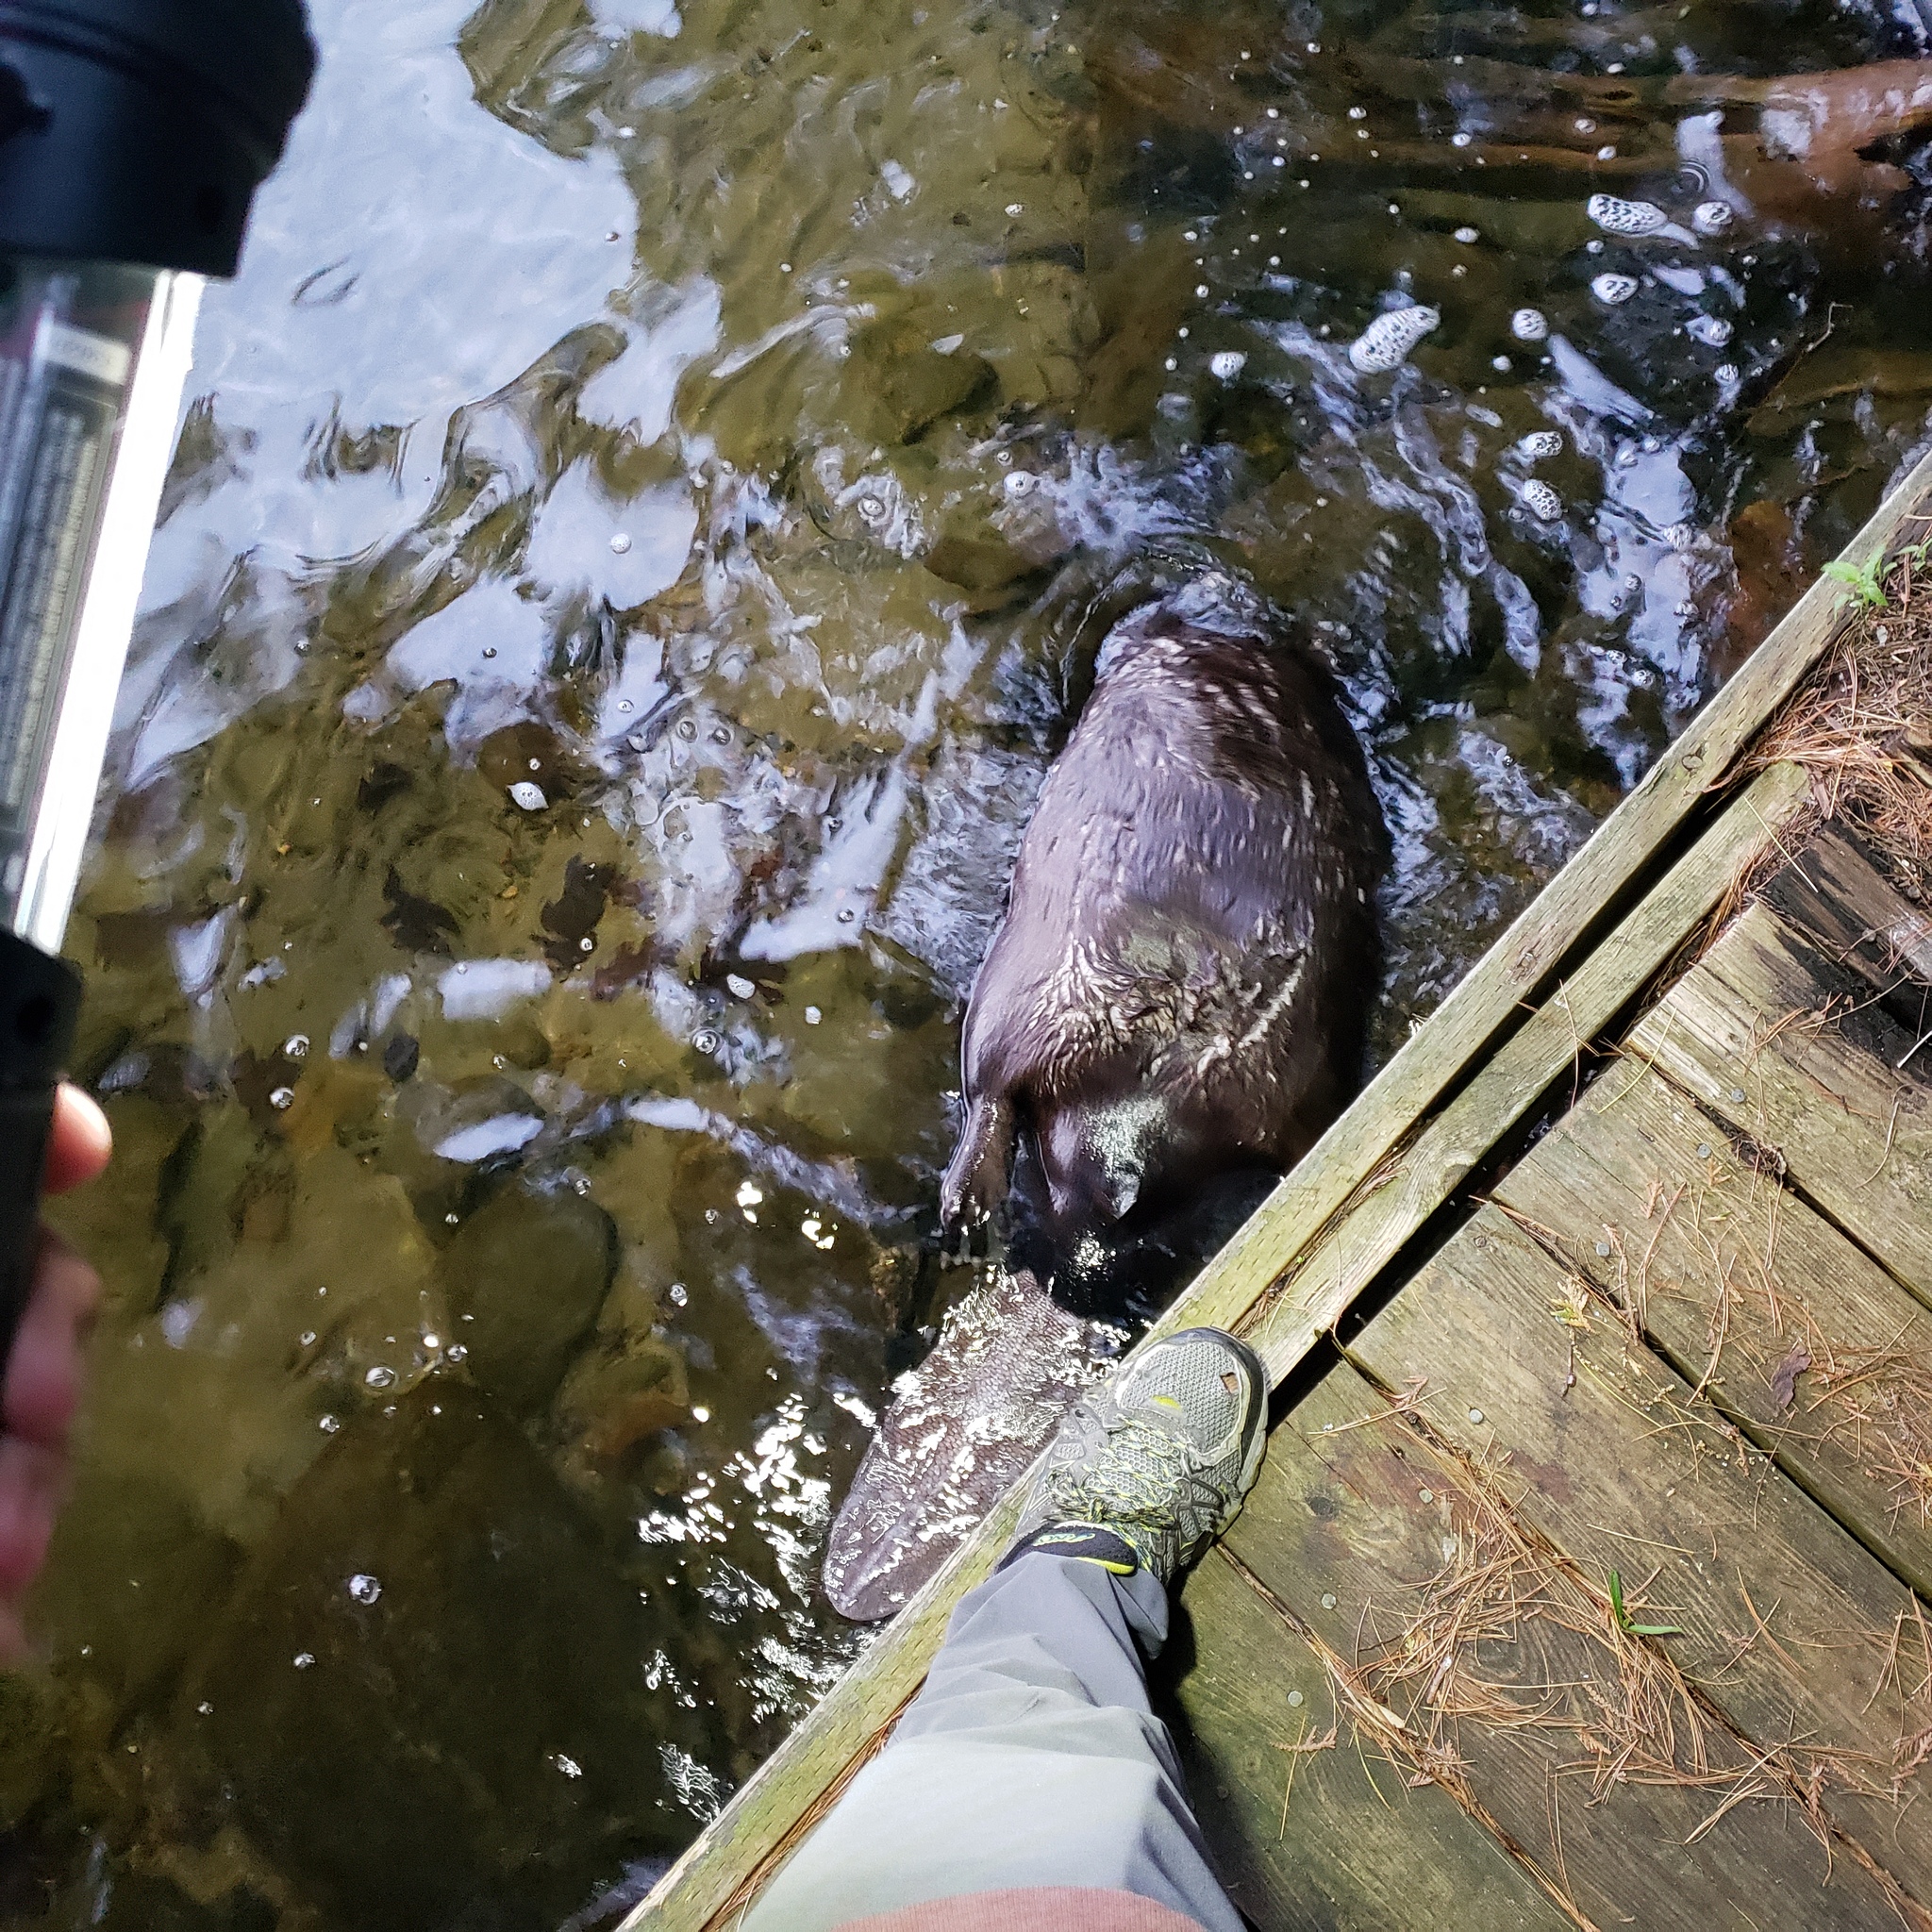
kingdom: Animalia
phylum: Chordata
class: Mammalia
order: Rodentia
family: Castoridae
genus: Castor
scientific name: Castor canadensis
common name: American beaver
